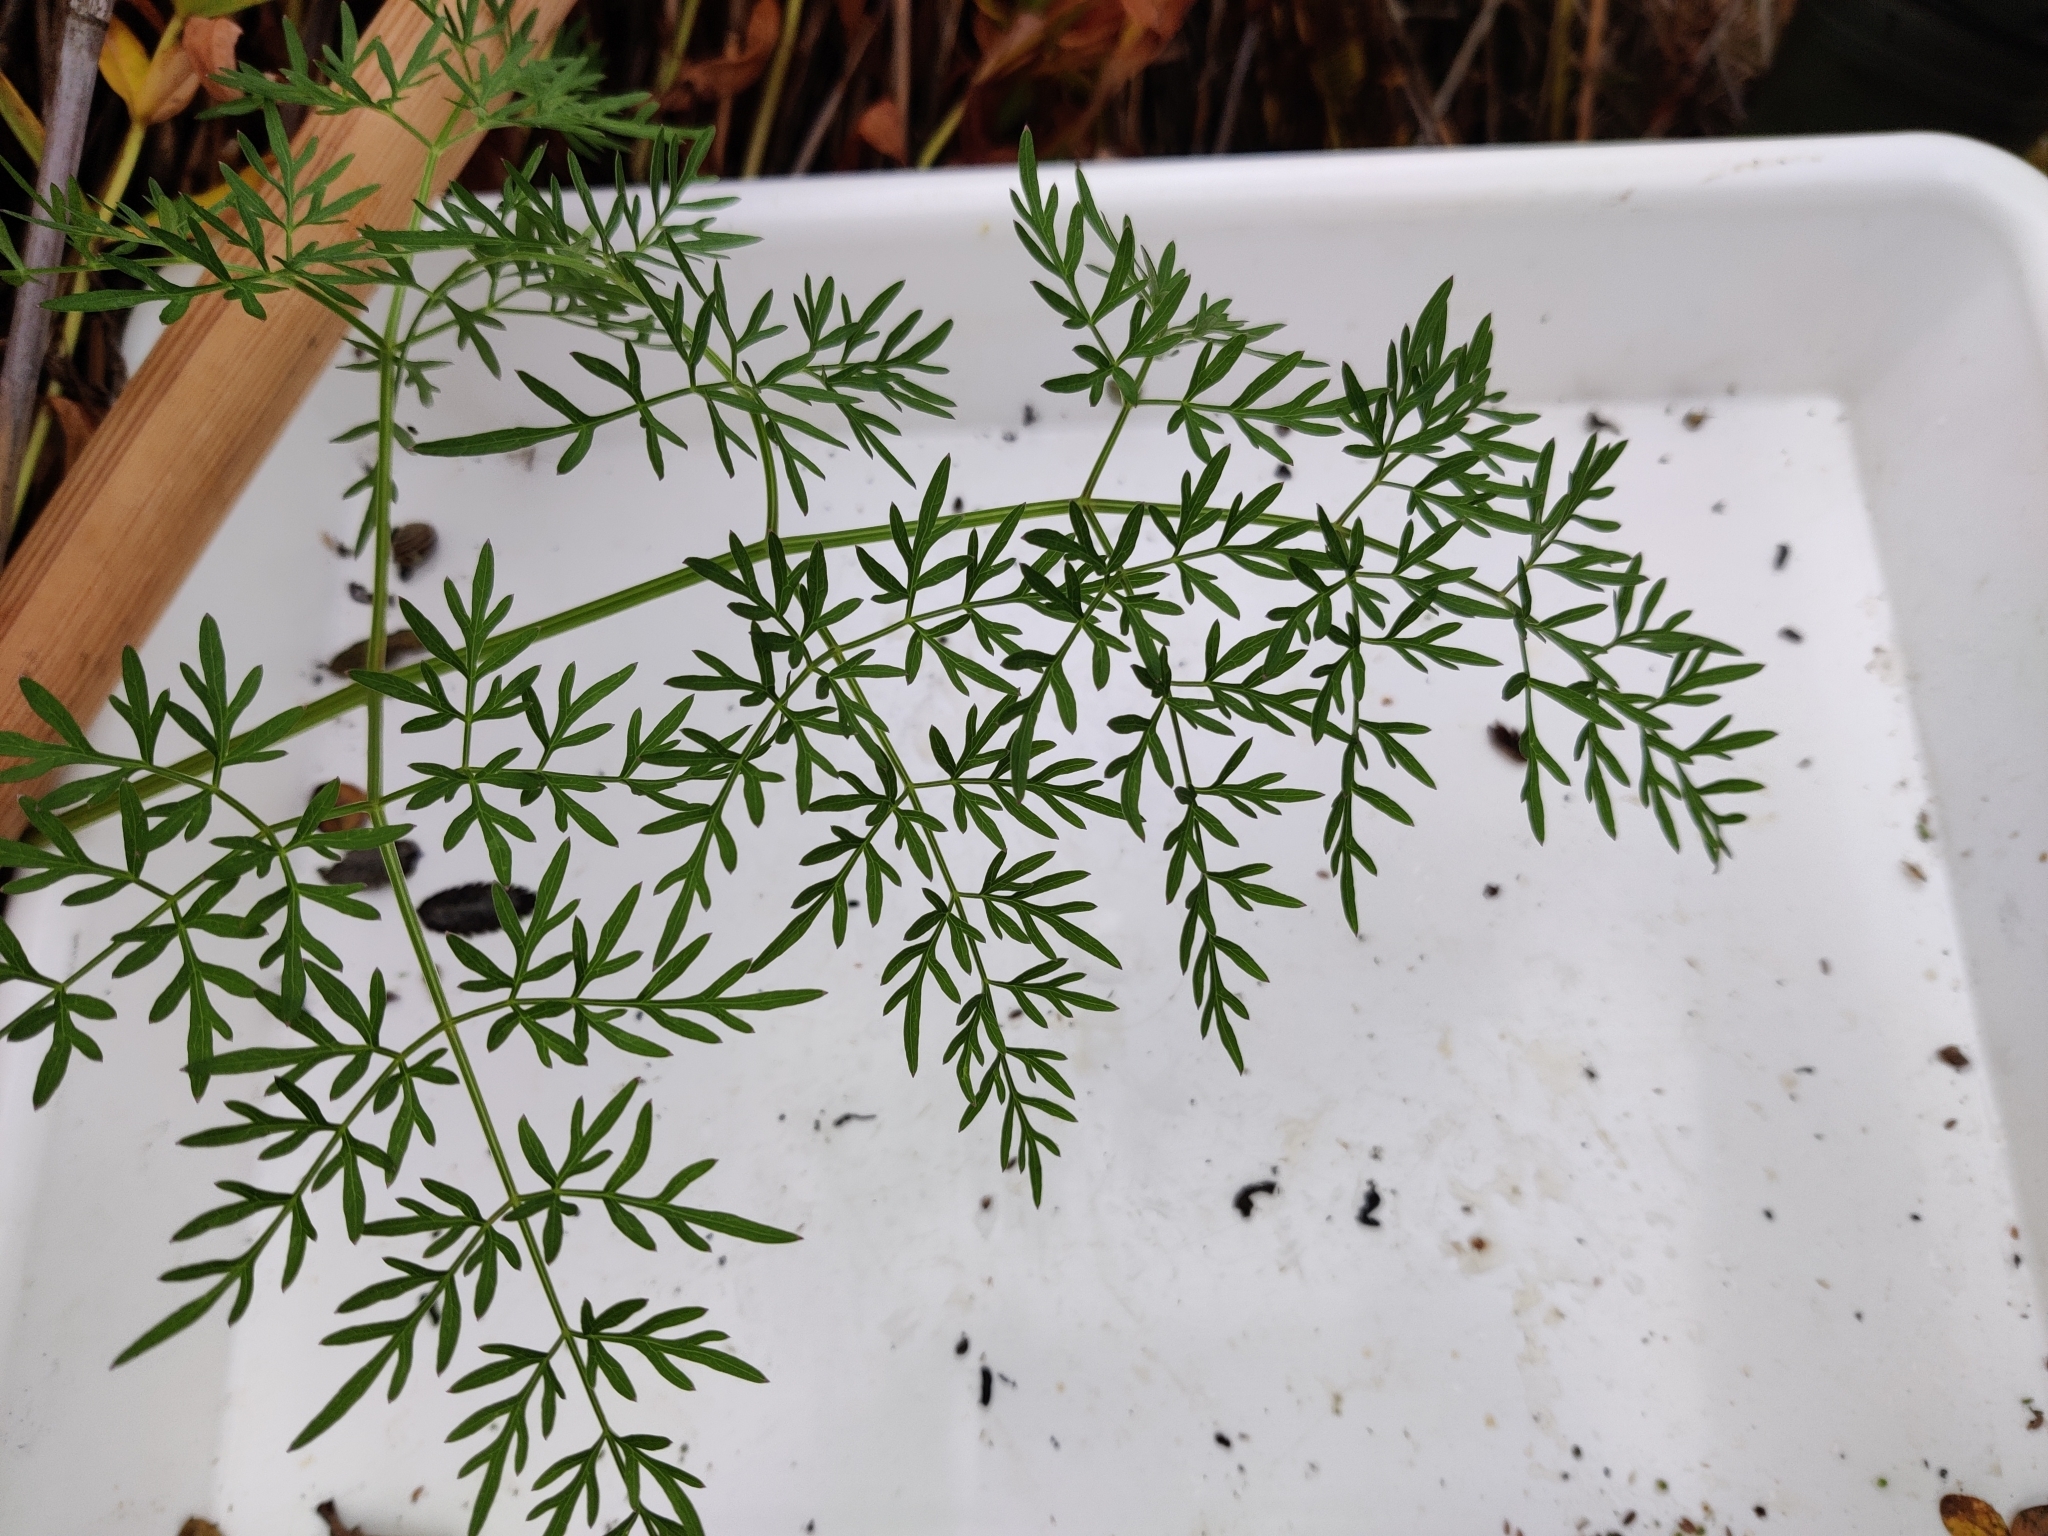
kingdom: Plantae
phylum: Tracheophyta
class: Magnoliopsida
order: Apiales
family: Apiaceae
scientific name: Apiaceae
